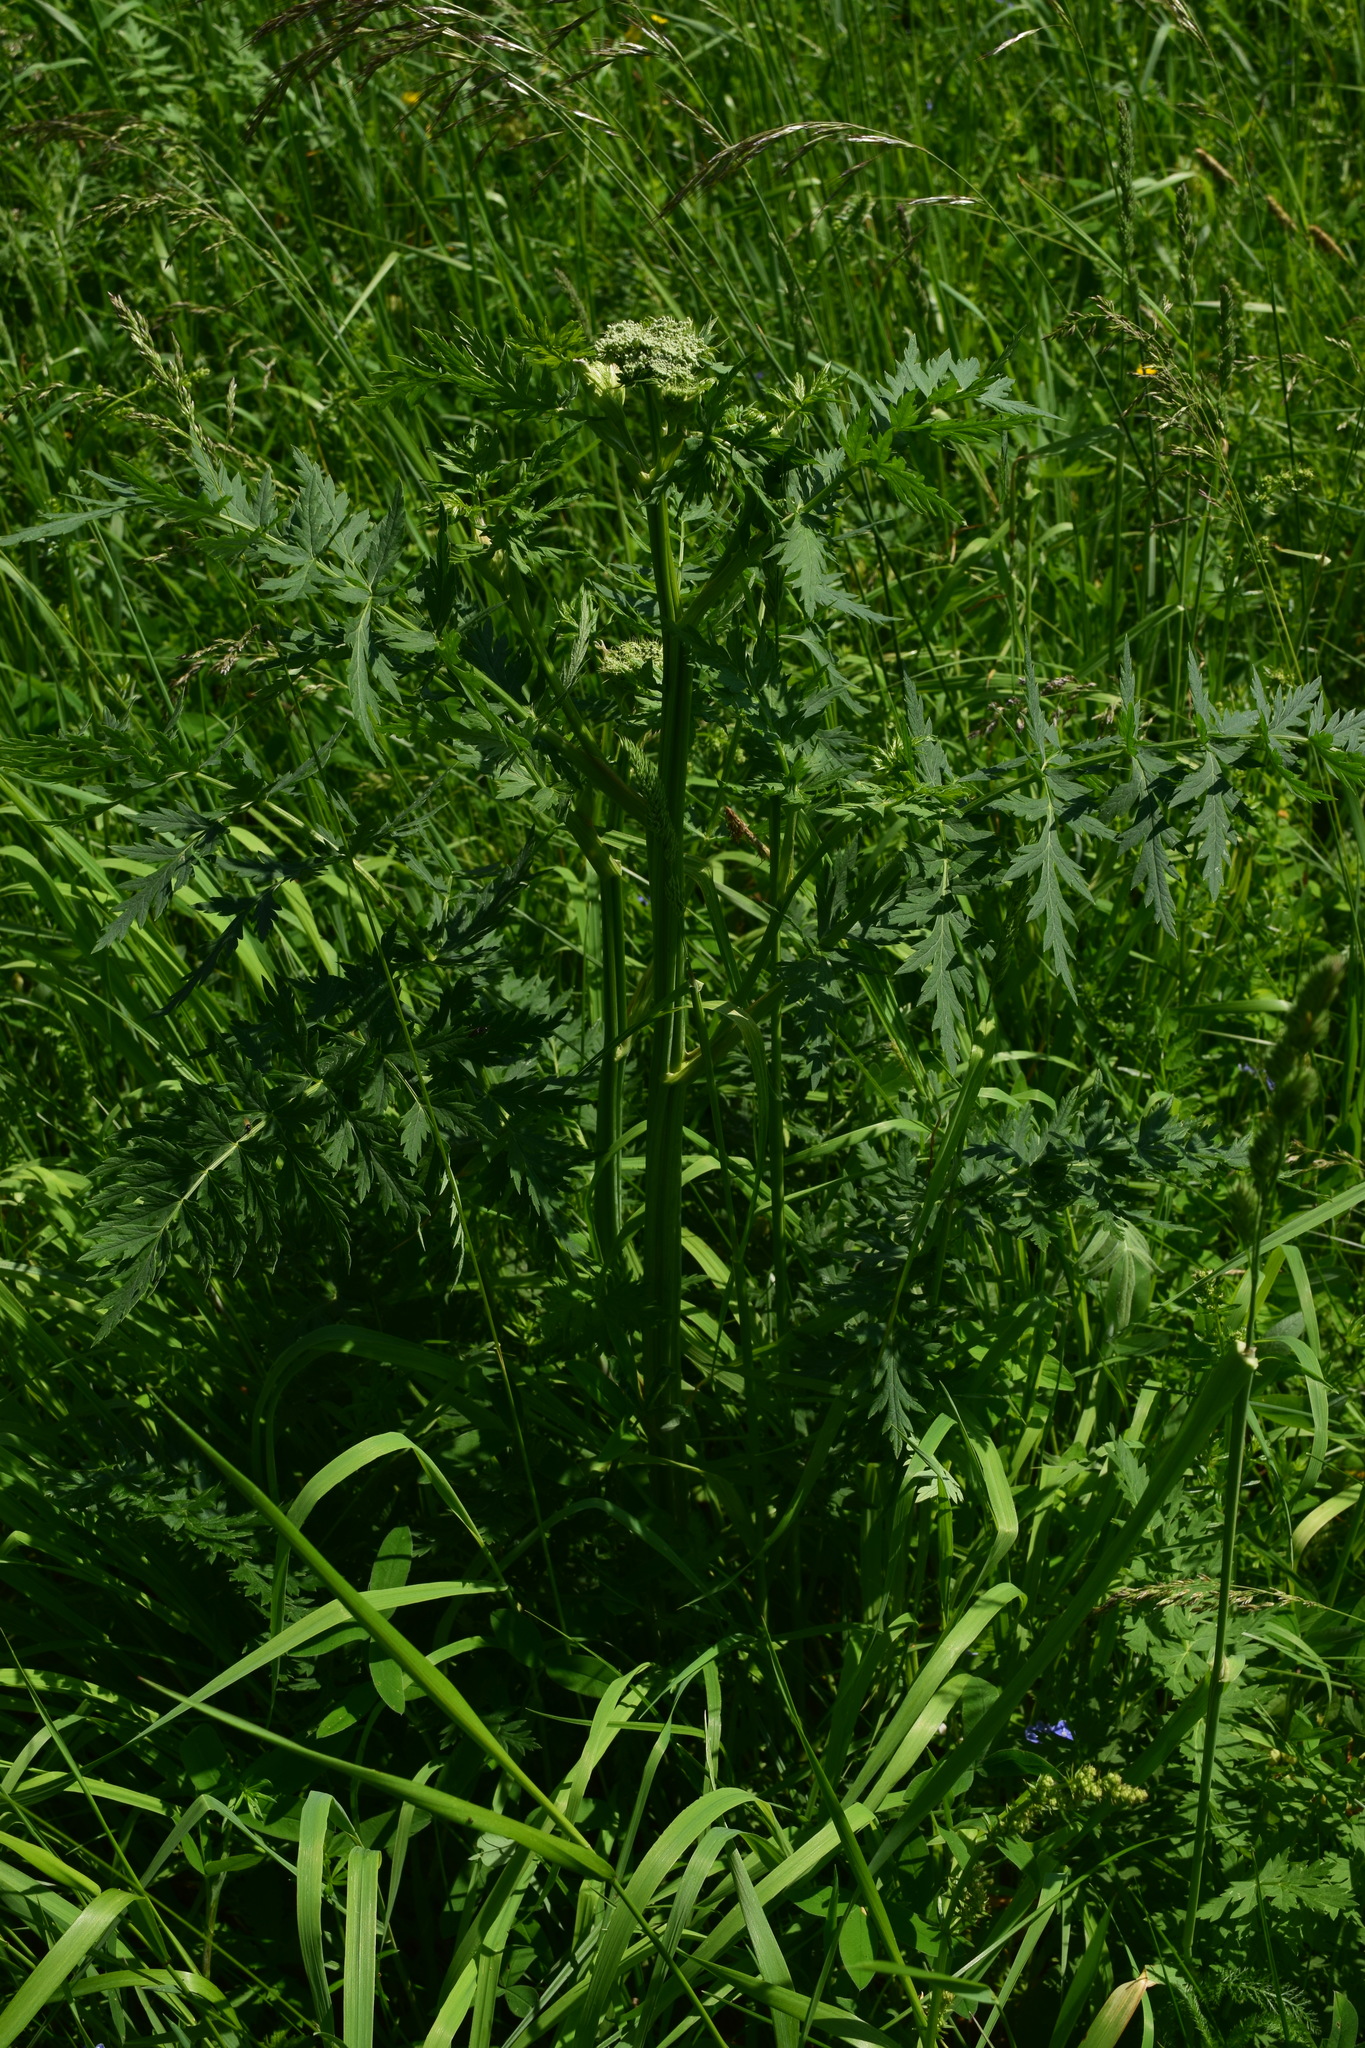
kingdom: Plantae
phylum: Tracheophyta
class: Magnoliopsida
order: Apiales
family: Apiaceae
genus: Seseli
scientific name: Seseli libanotis
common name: Mooncarrot
